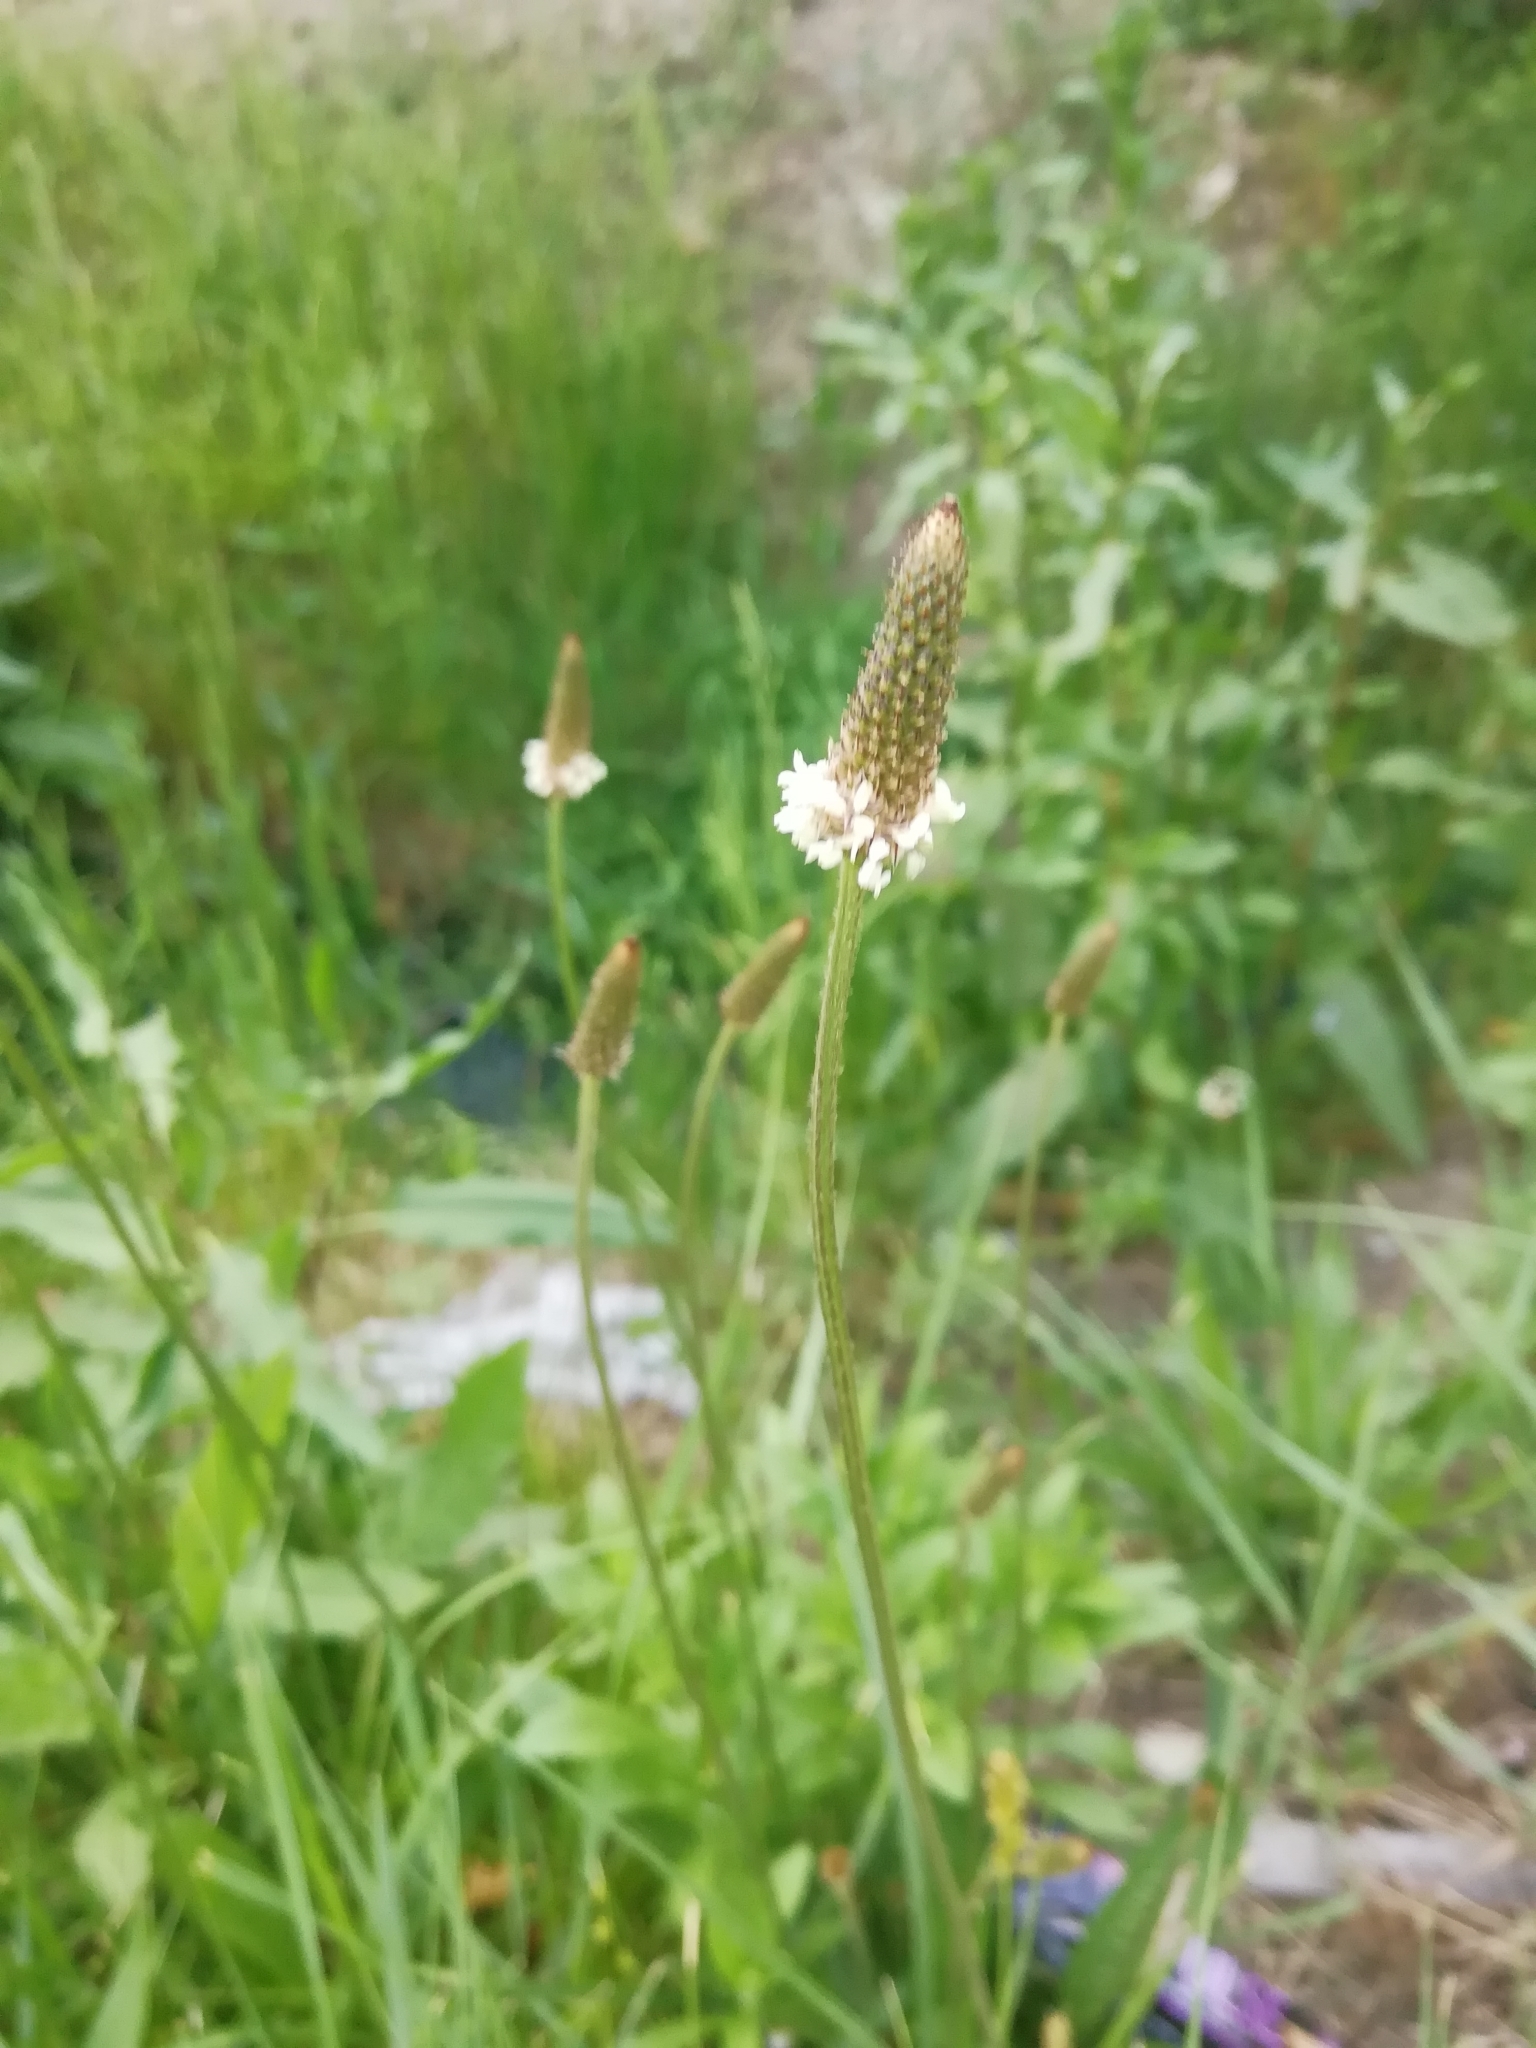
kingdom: Plantae
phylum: Tracheophyta
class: Magnoliopsida
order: Lamiales
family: Plantaginaceae
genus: Plantago
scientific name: Plantago lanceolata
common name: Ribwort plantain
